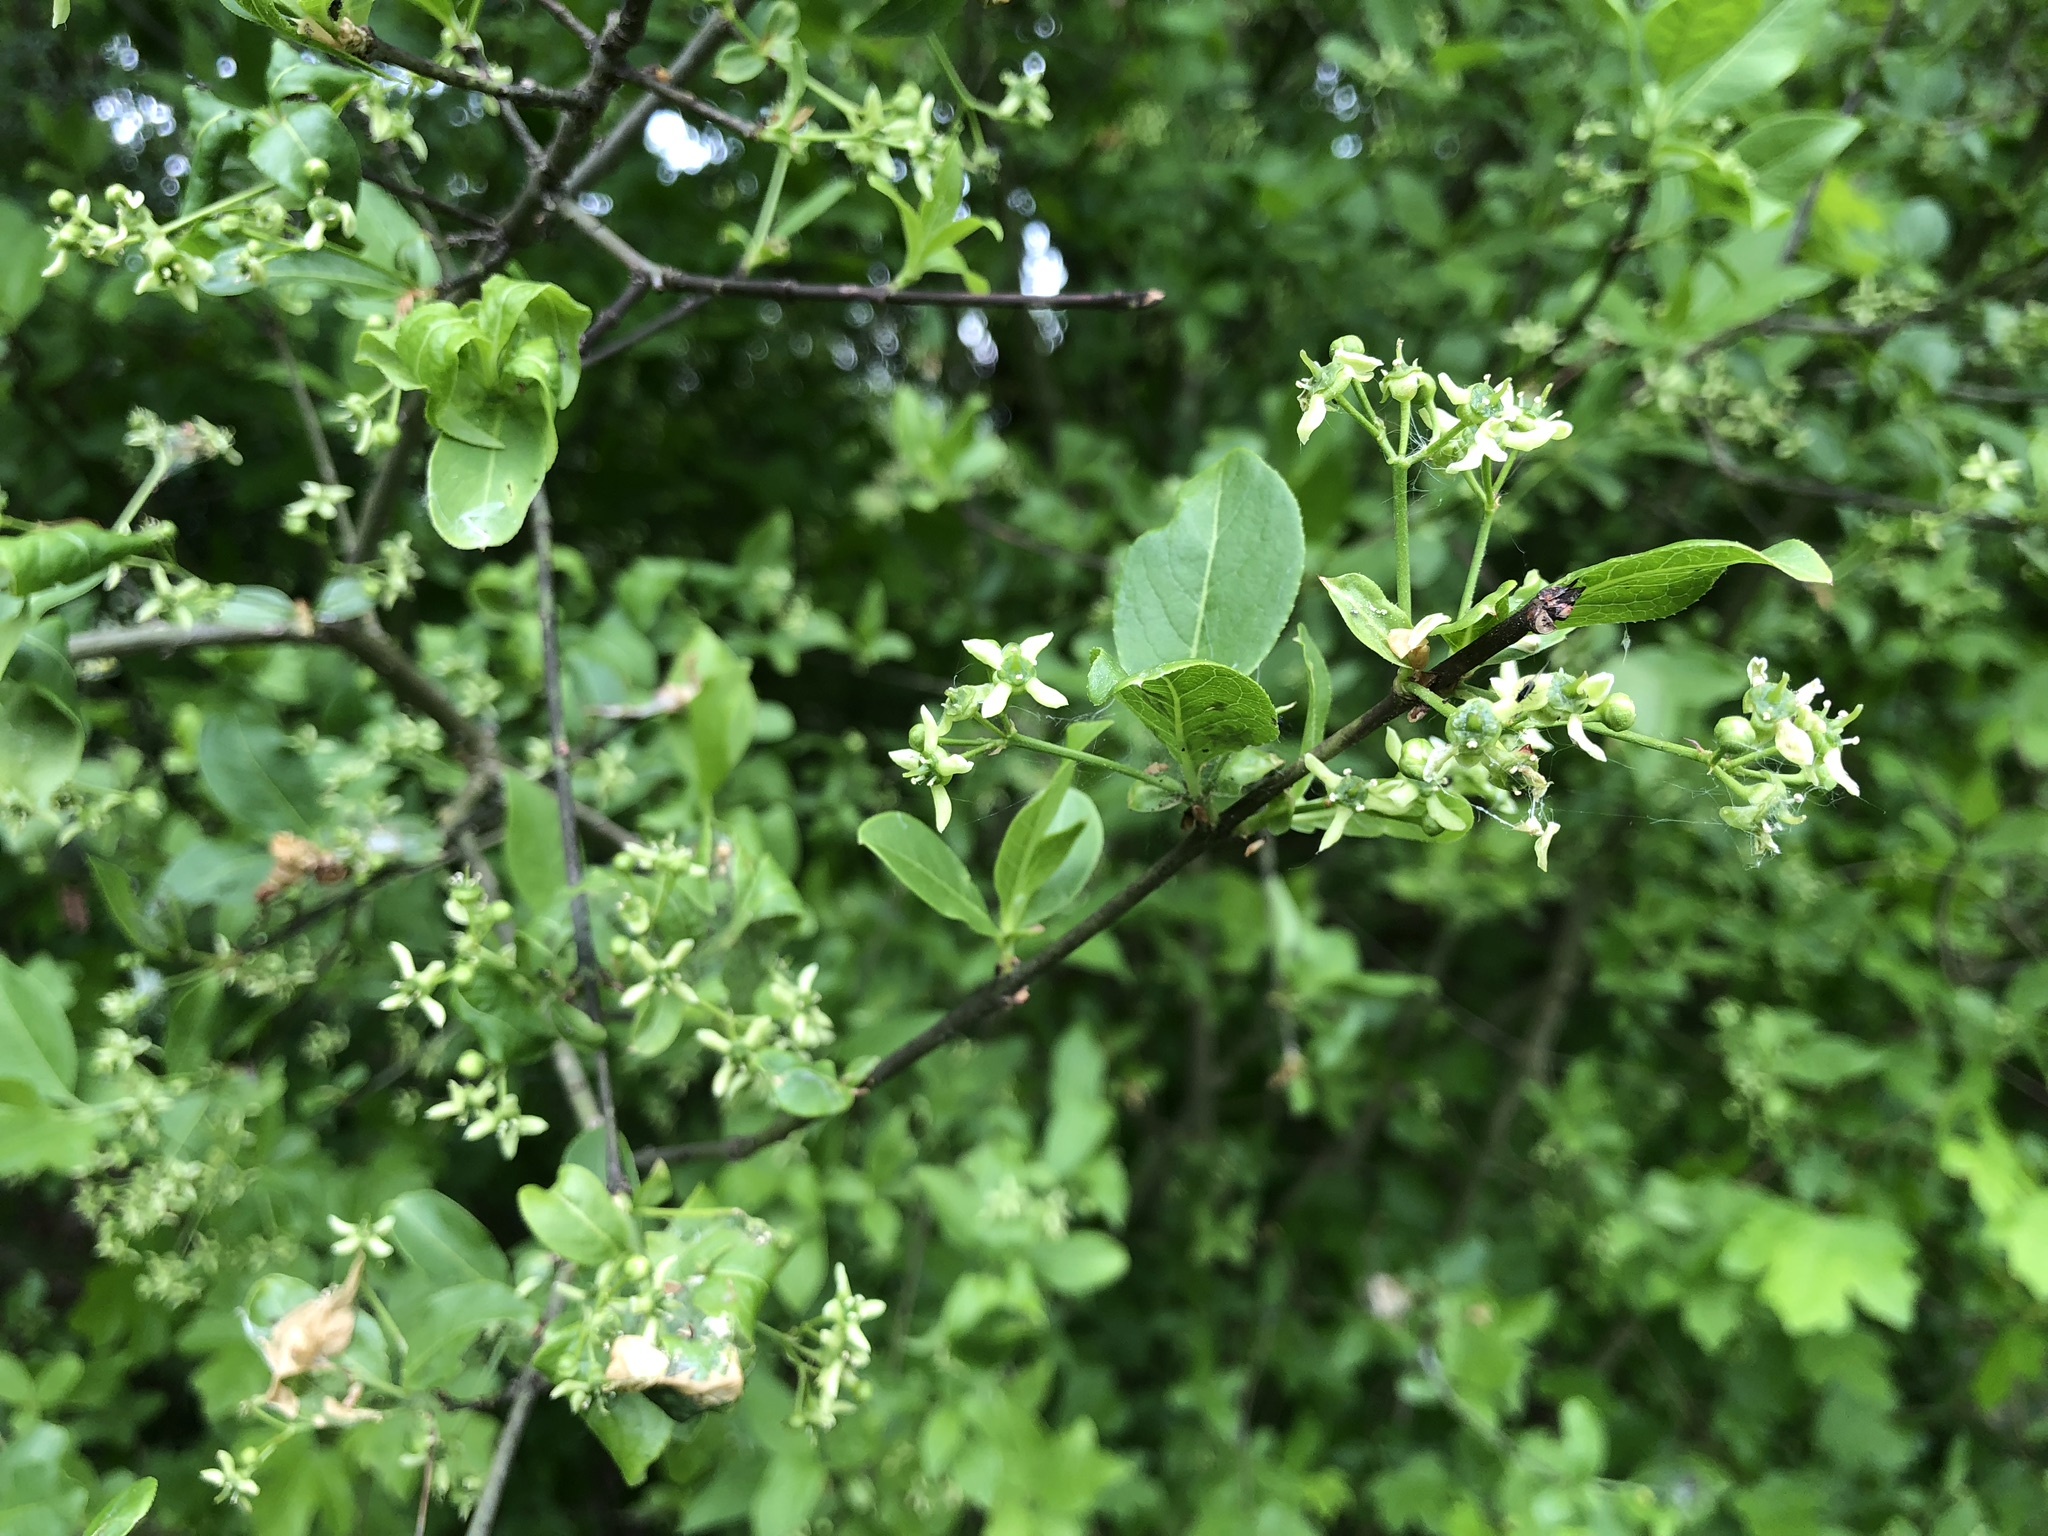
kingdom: Plantae
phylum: Tracheophyta
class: Magnoliopsida
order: Celastrales
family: Celastraceae
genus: Euonymus
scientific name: Euonymus europaeus
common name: Spindle
